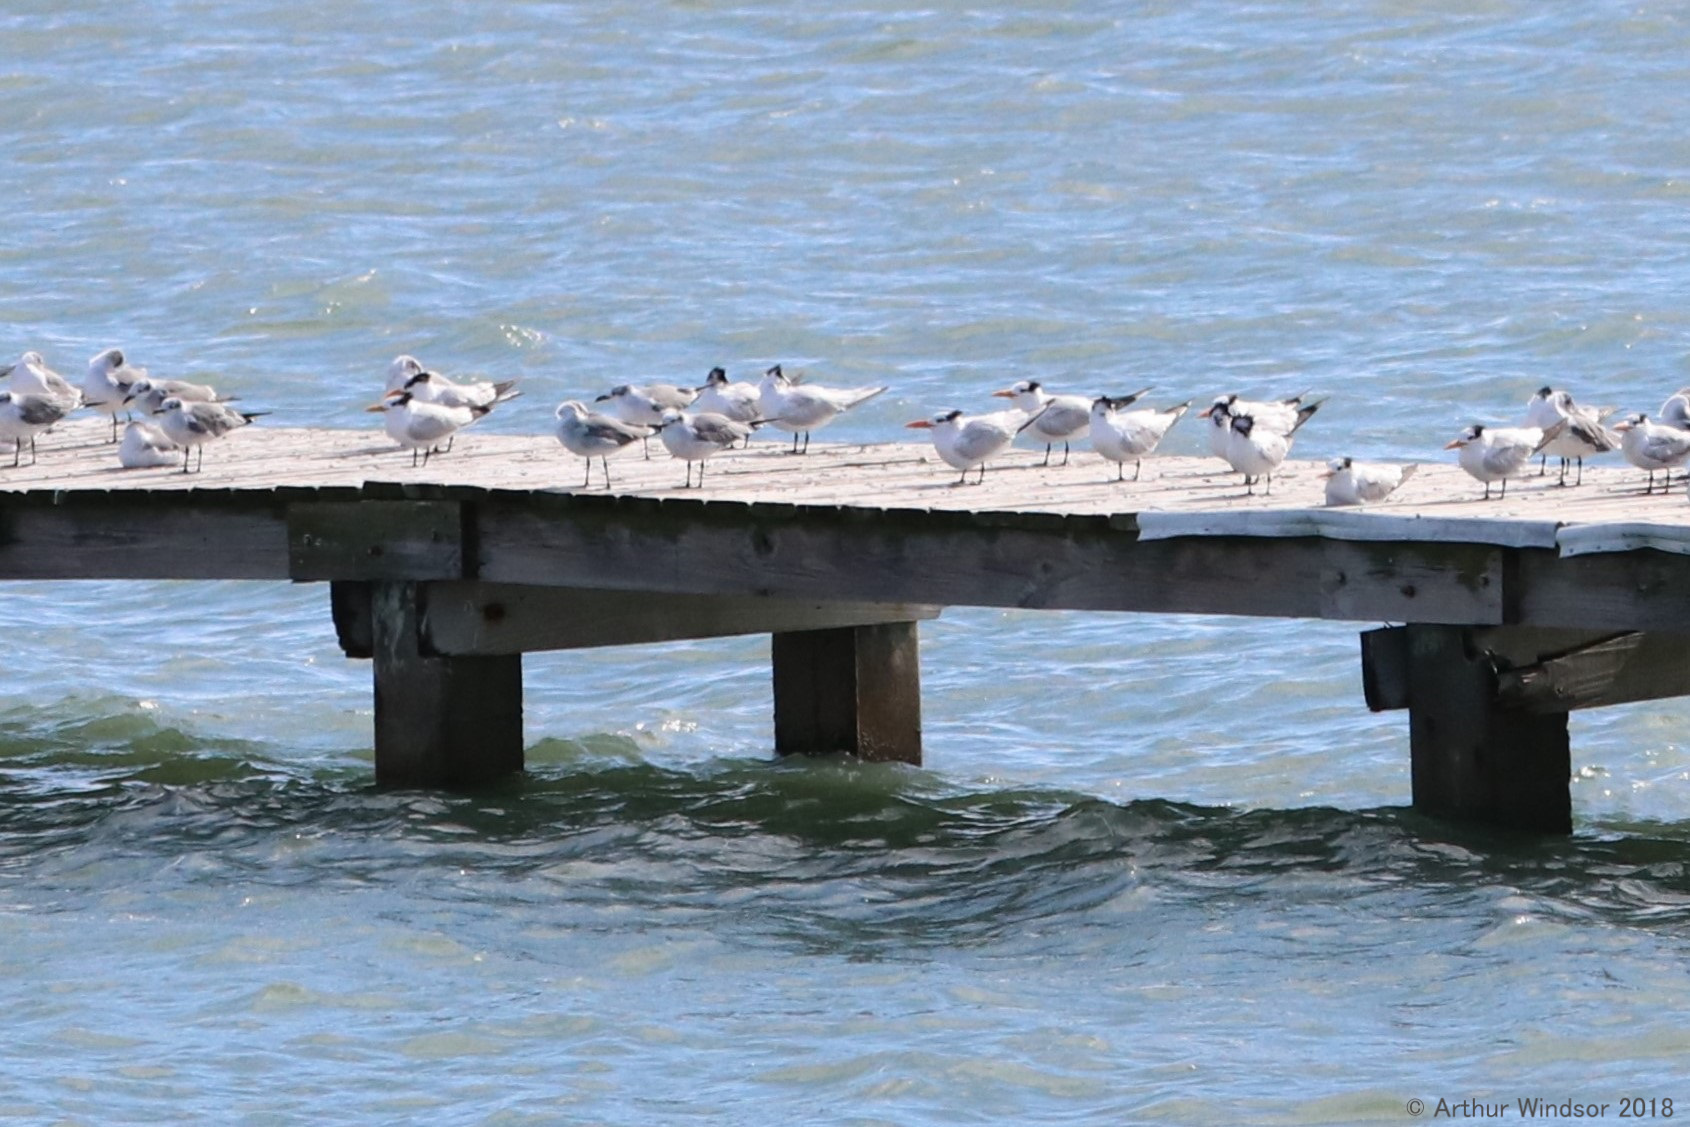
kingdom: Animalia
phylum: Chordata
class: Aves
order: Charadriiformes
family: Laridae
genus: Thalasseus
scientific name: Thalasseus maximus
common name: Royal tern
